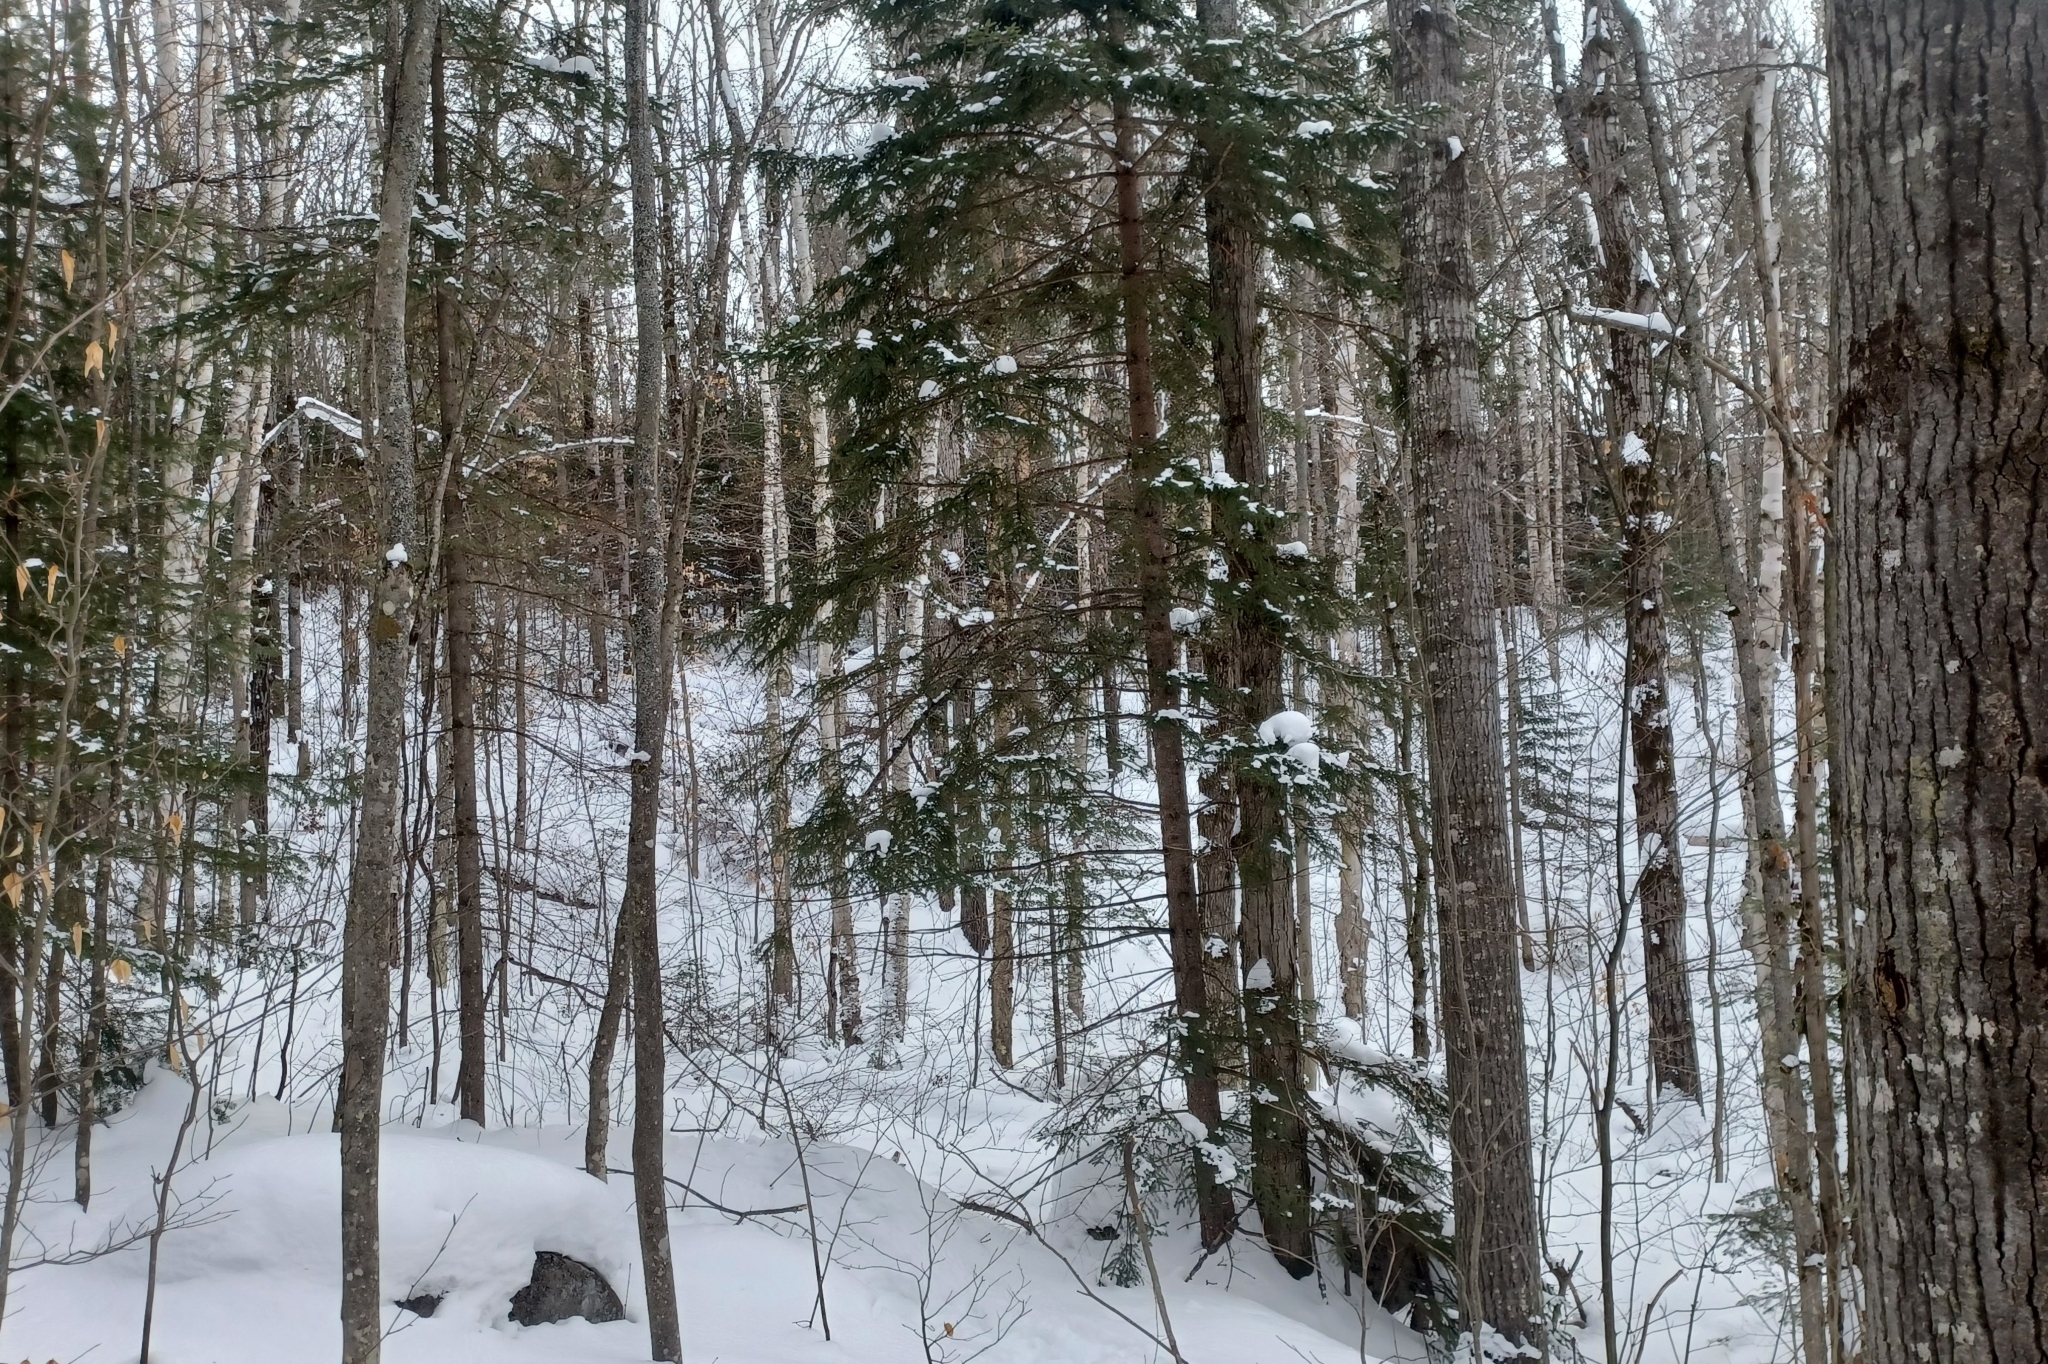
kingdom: Plantae
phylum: Tracheophyta
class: Pinopsida
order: Pinales
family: Pinaceae
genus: Picea
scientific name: Picea rubens
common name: Red spruce
